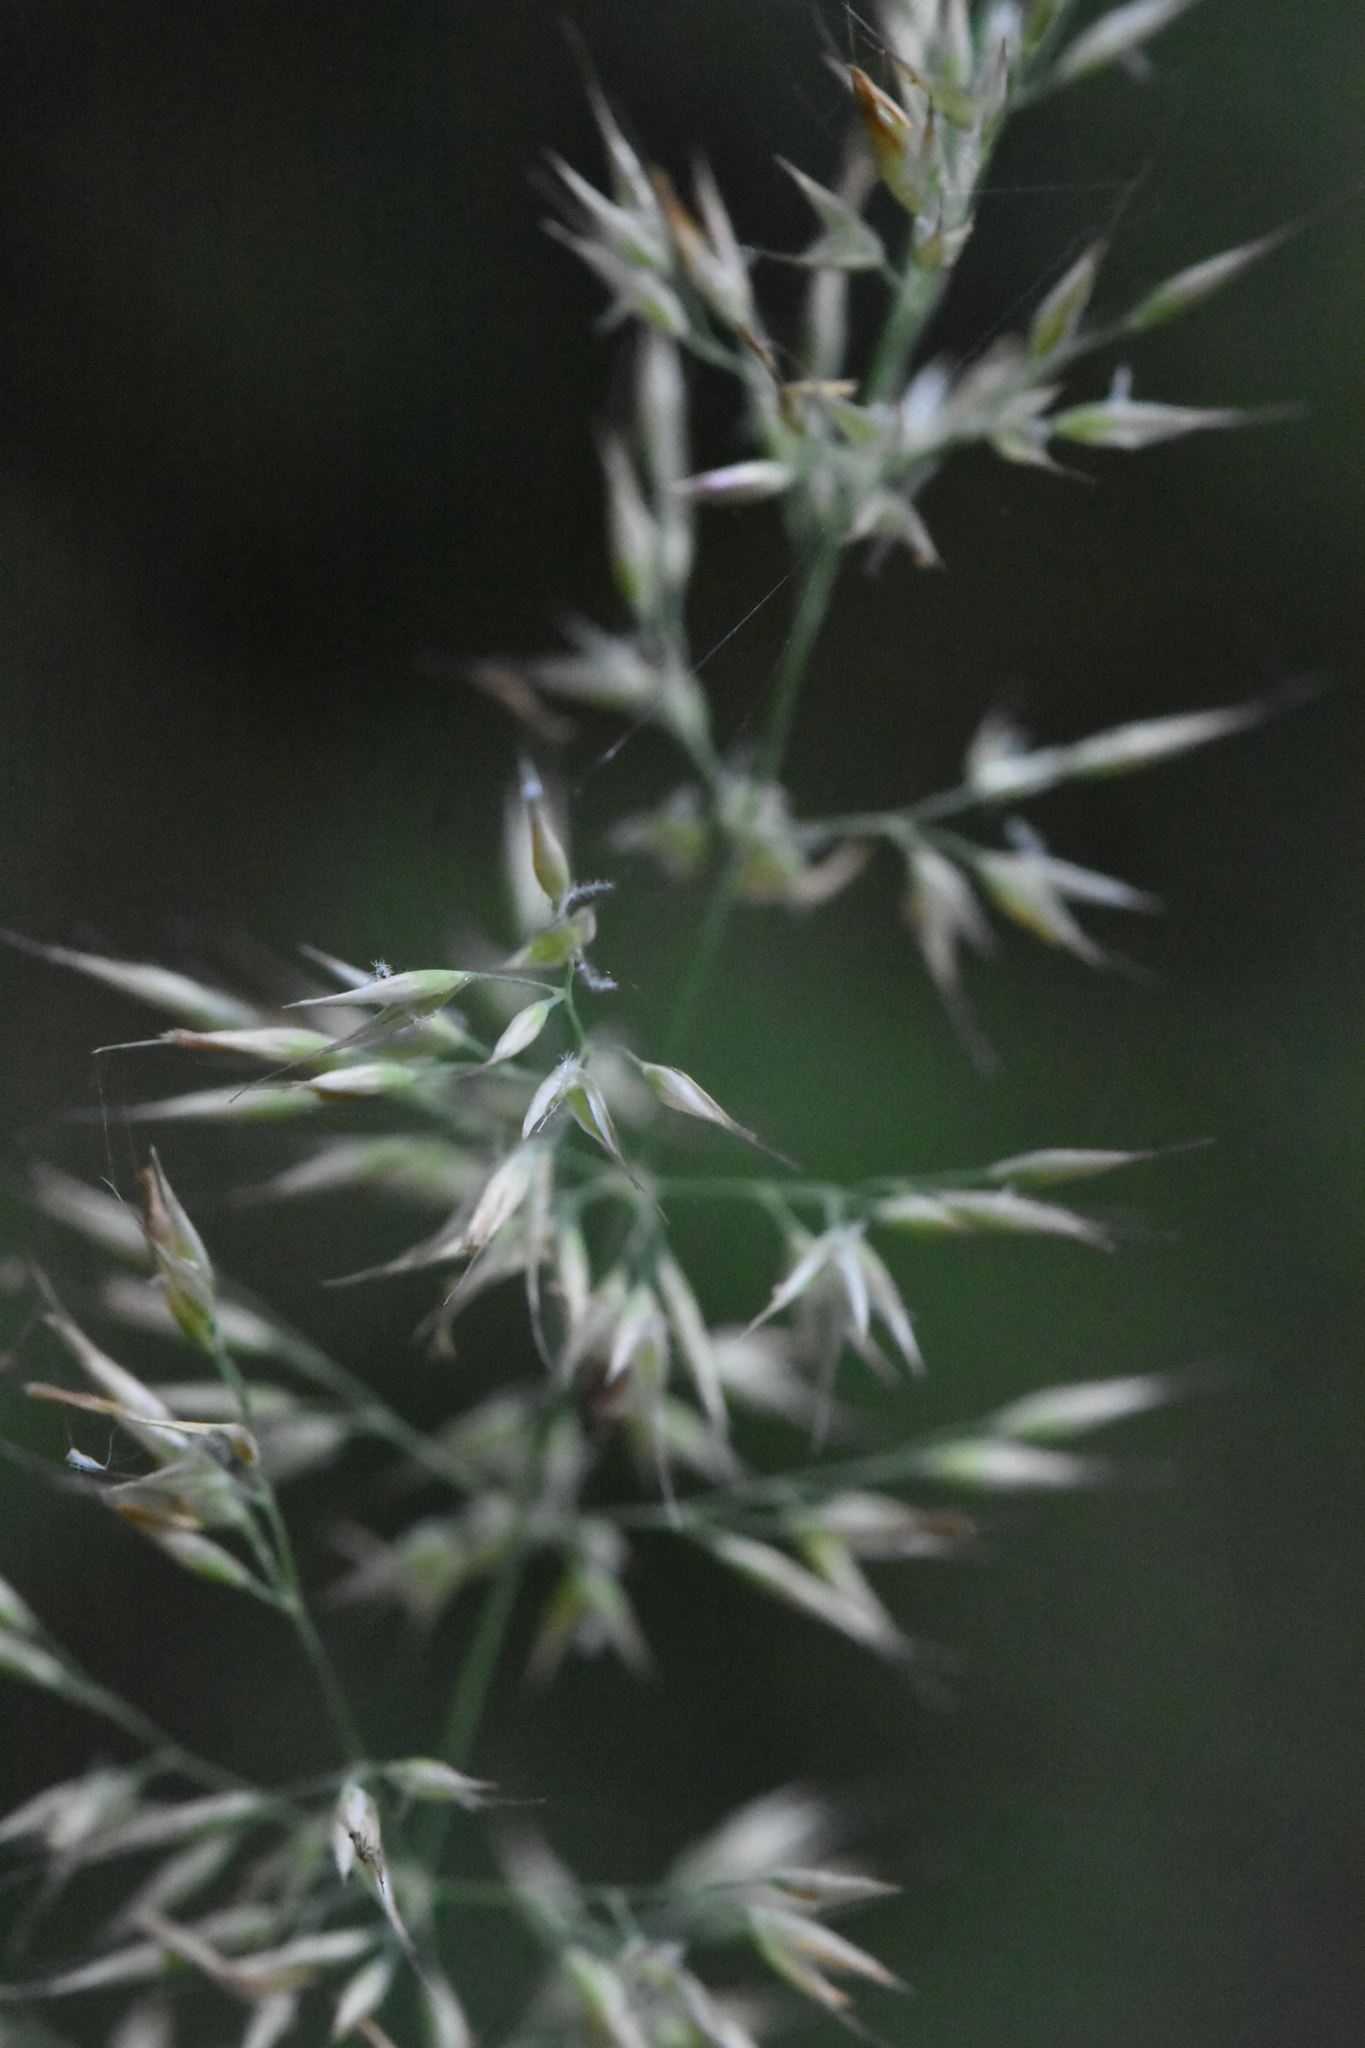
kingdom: Plantae
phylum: Tracheophyta
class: Liliopsida
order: Poales
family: Poaceae
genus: Calamagrostis
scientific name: Calamagrostis arundinacea
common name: Metskastik
